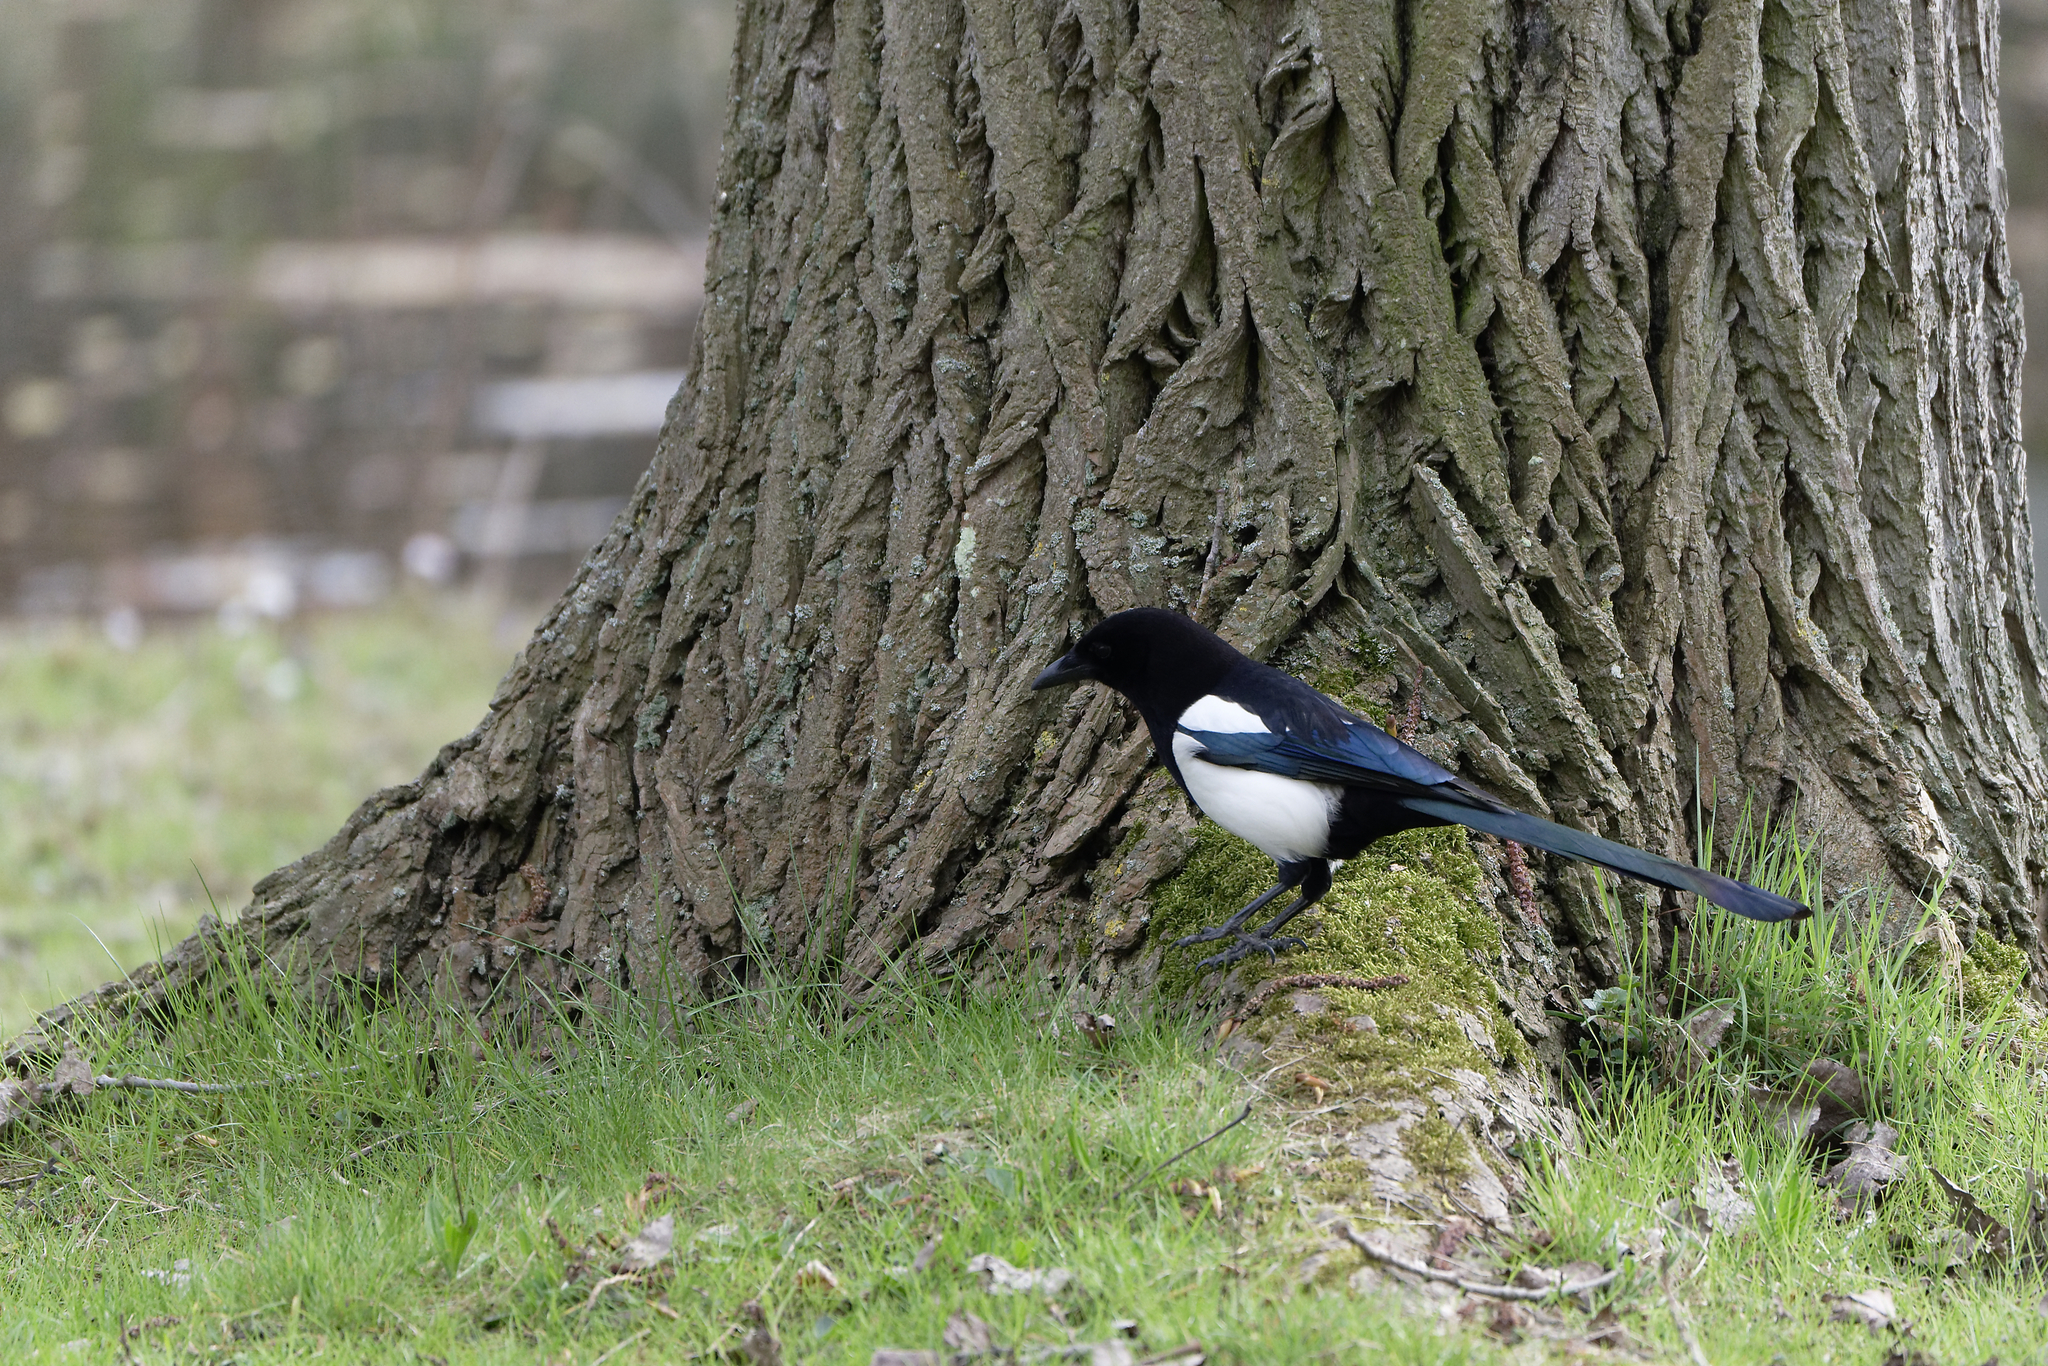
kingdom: Animalia
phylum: Chordata
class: Aves
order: Passeriformes
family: Corvidae
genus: Pica
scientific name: Pica pica
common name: Eurasian magpie
